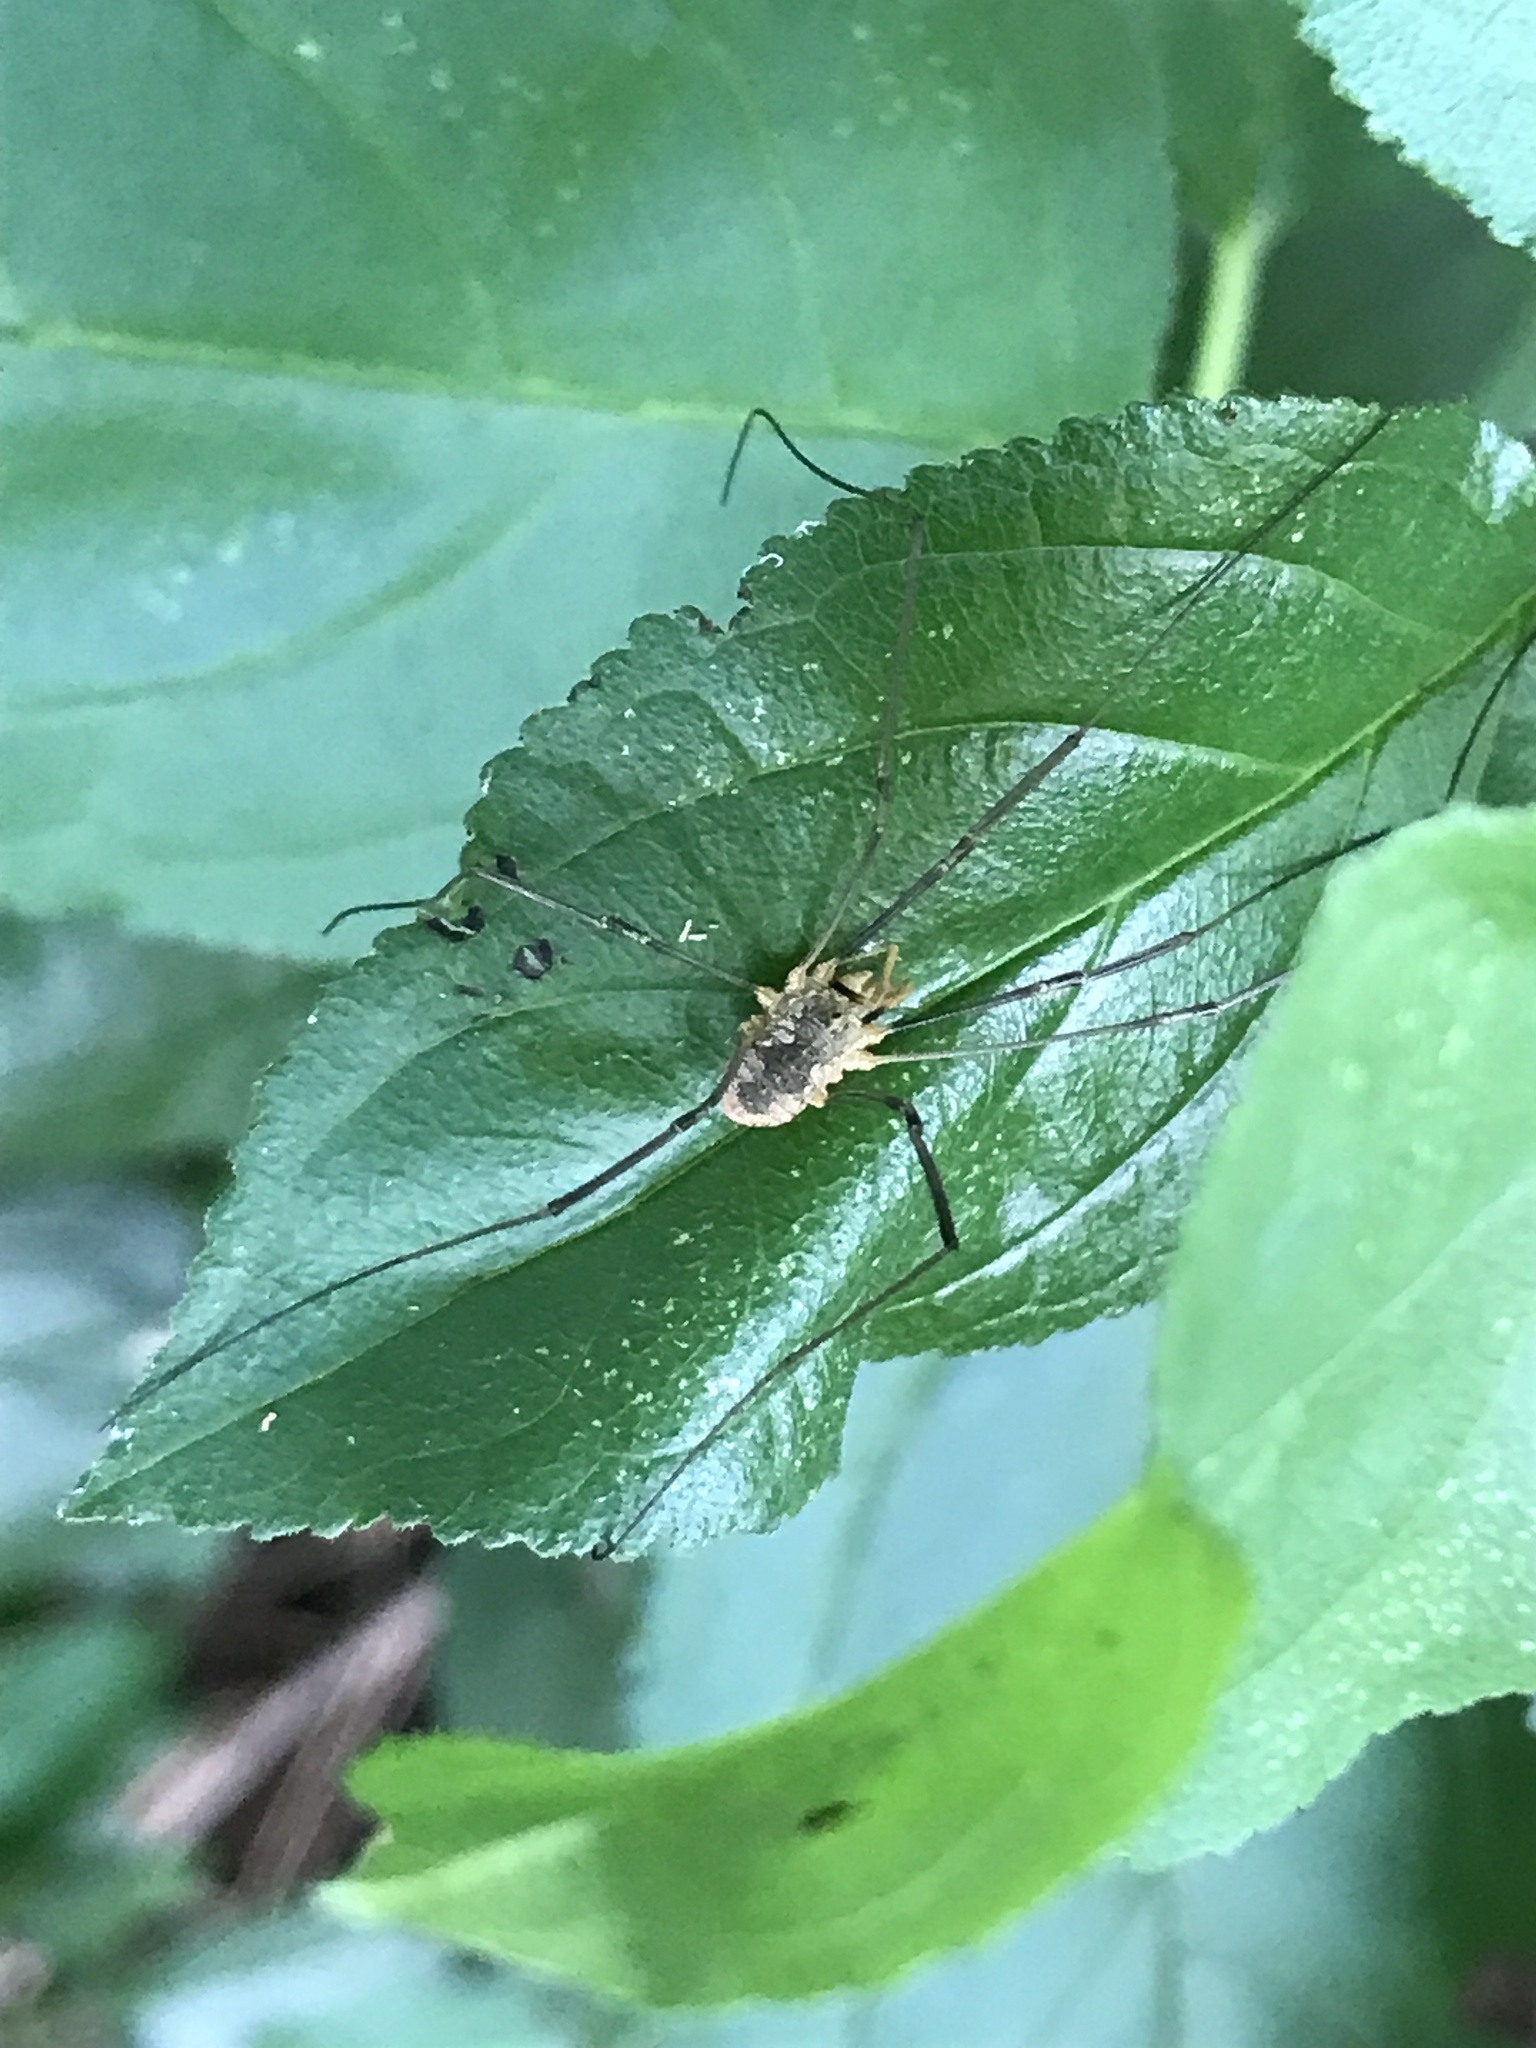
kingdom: Animalia
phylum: Arthropoda
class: Arachnida
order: Opiliones
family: Phalangiidae
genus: Phalangium
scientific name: Phalangium opilio
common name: Daddy longleg
